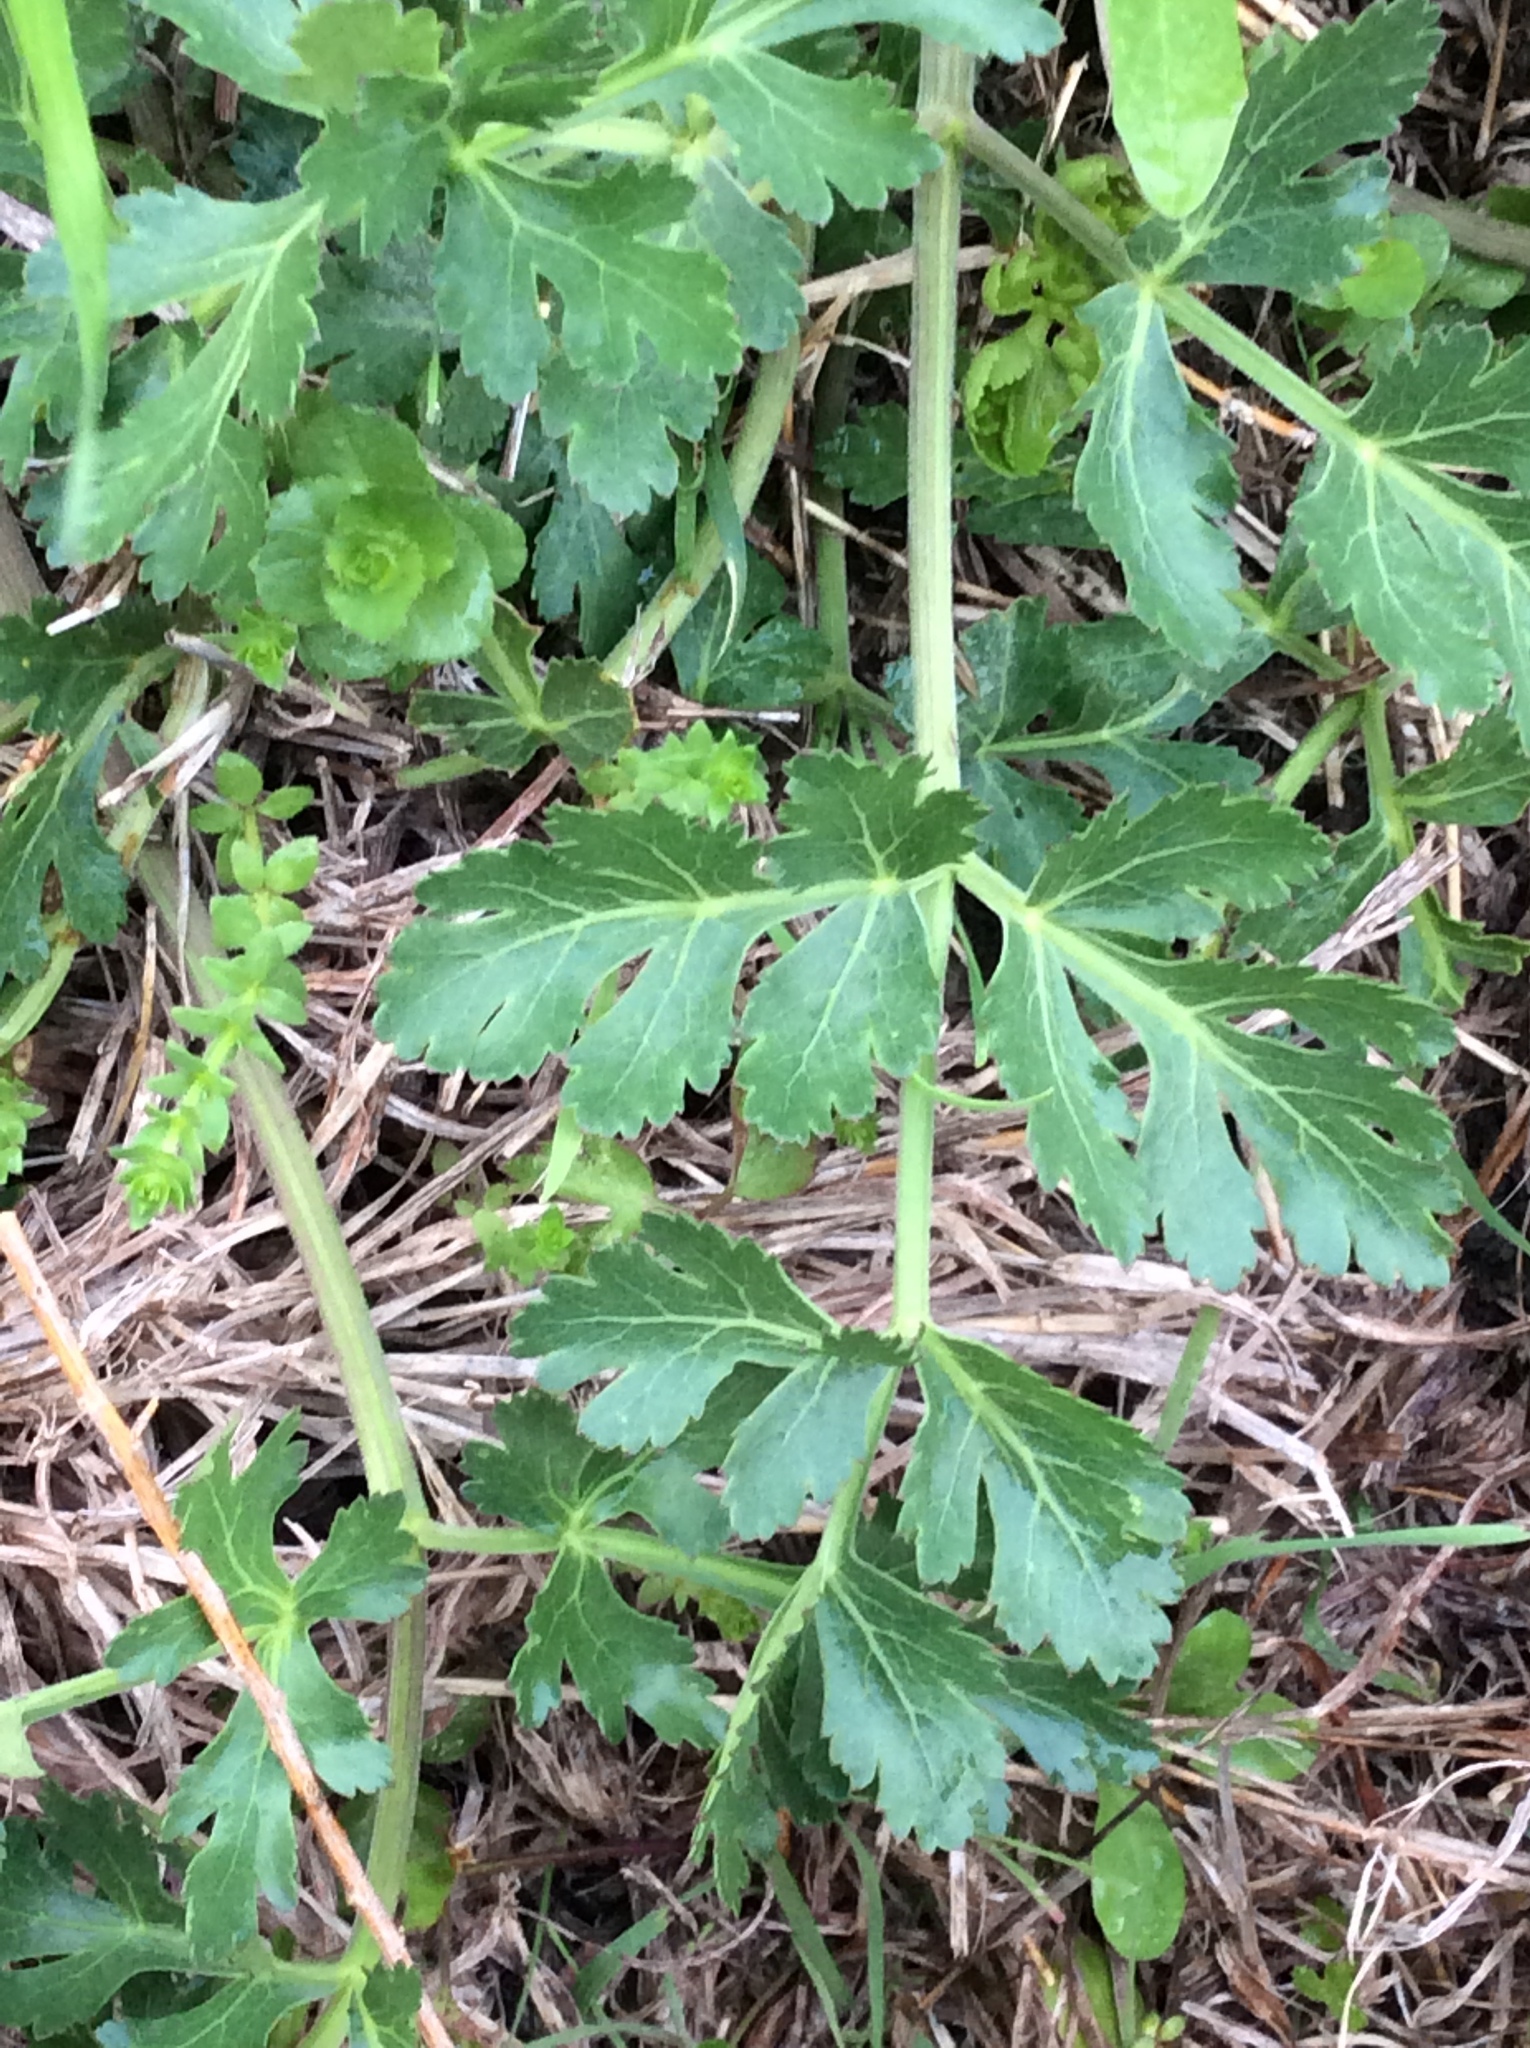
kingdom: Plantae
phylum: Tracheophyta
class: Magnoliopsida
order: Apiales
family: Apiaceae
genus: Polytaenia
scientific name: Polytaenia texana
